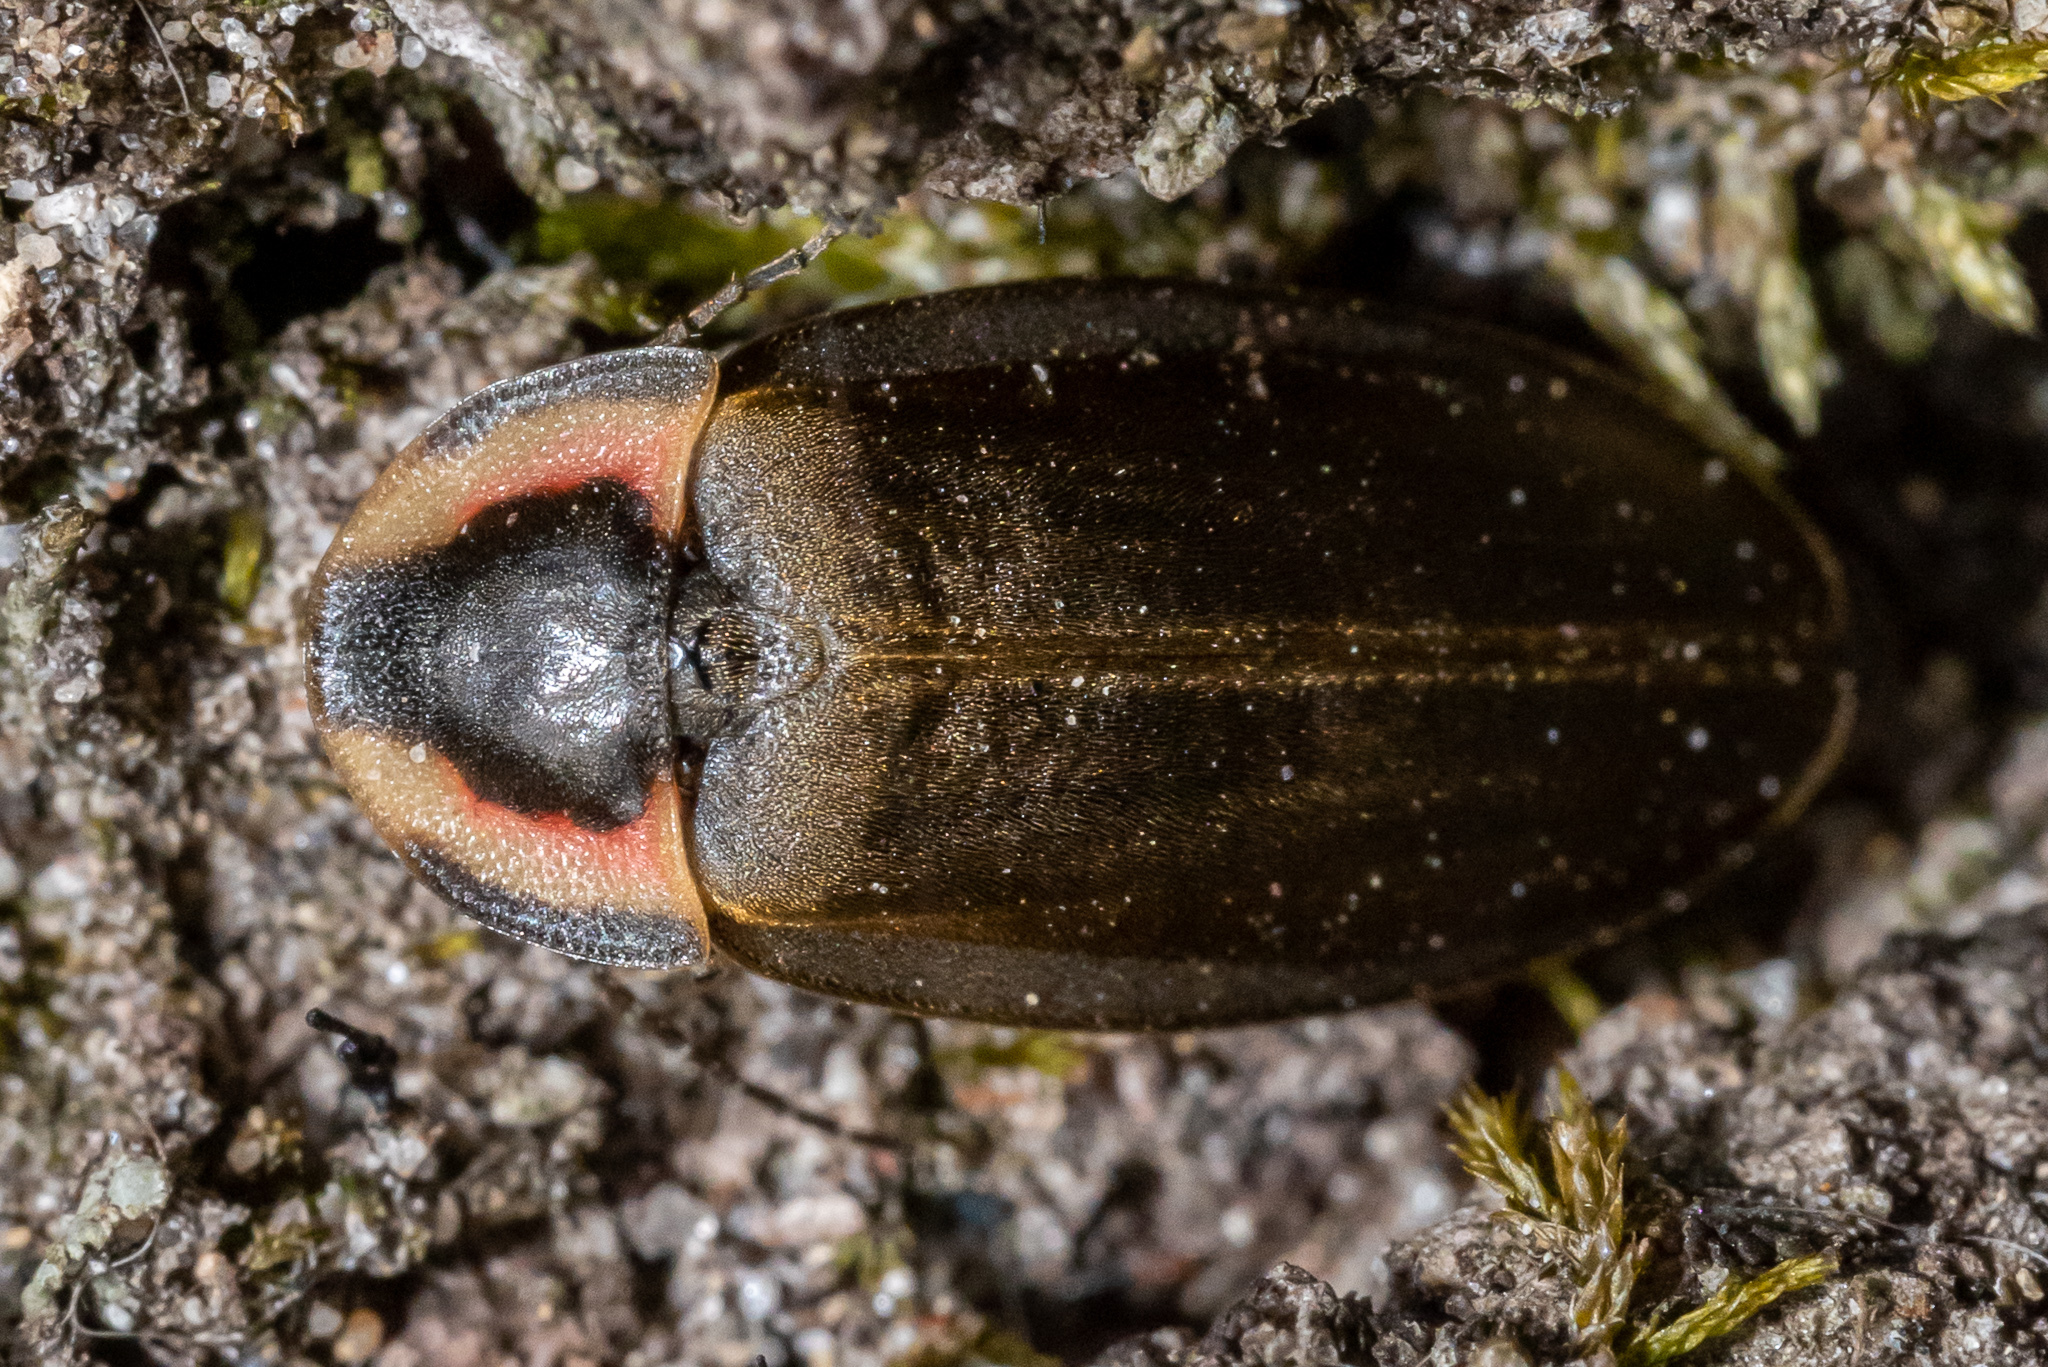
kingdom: Animalia
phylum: Arthropoda
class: Insecta
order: Coleoptera
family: Lampyridae
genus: Photinus
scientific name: Photinus corrusca
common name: Winter firefly
